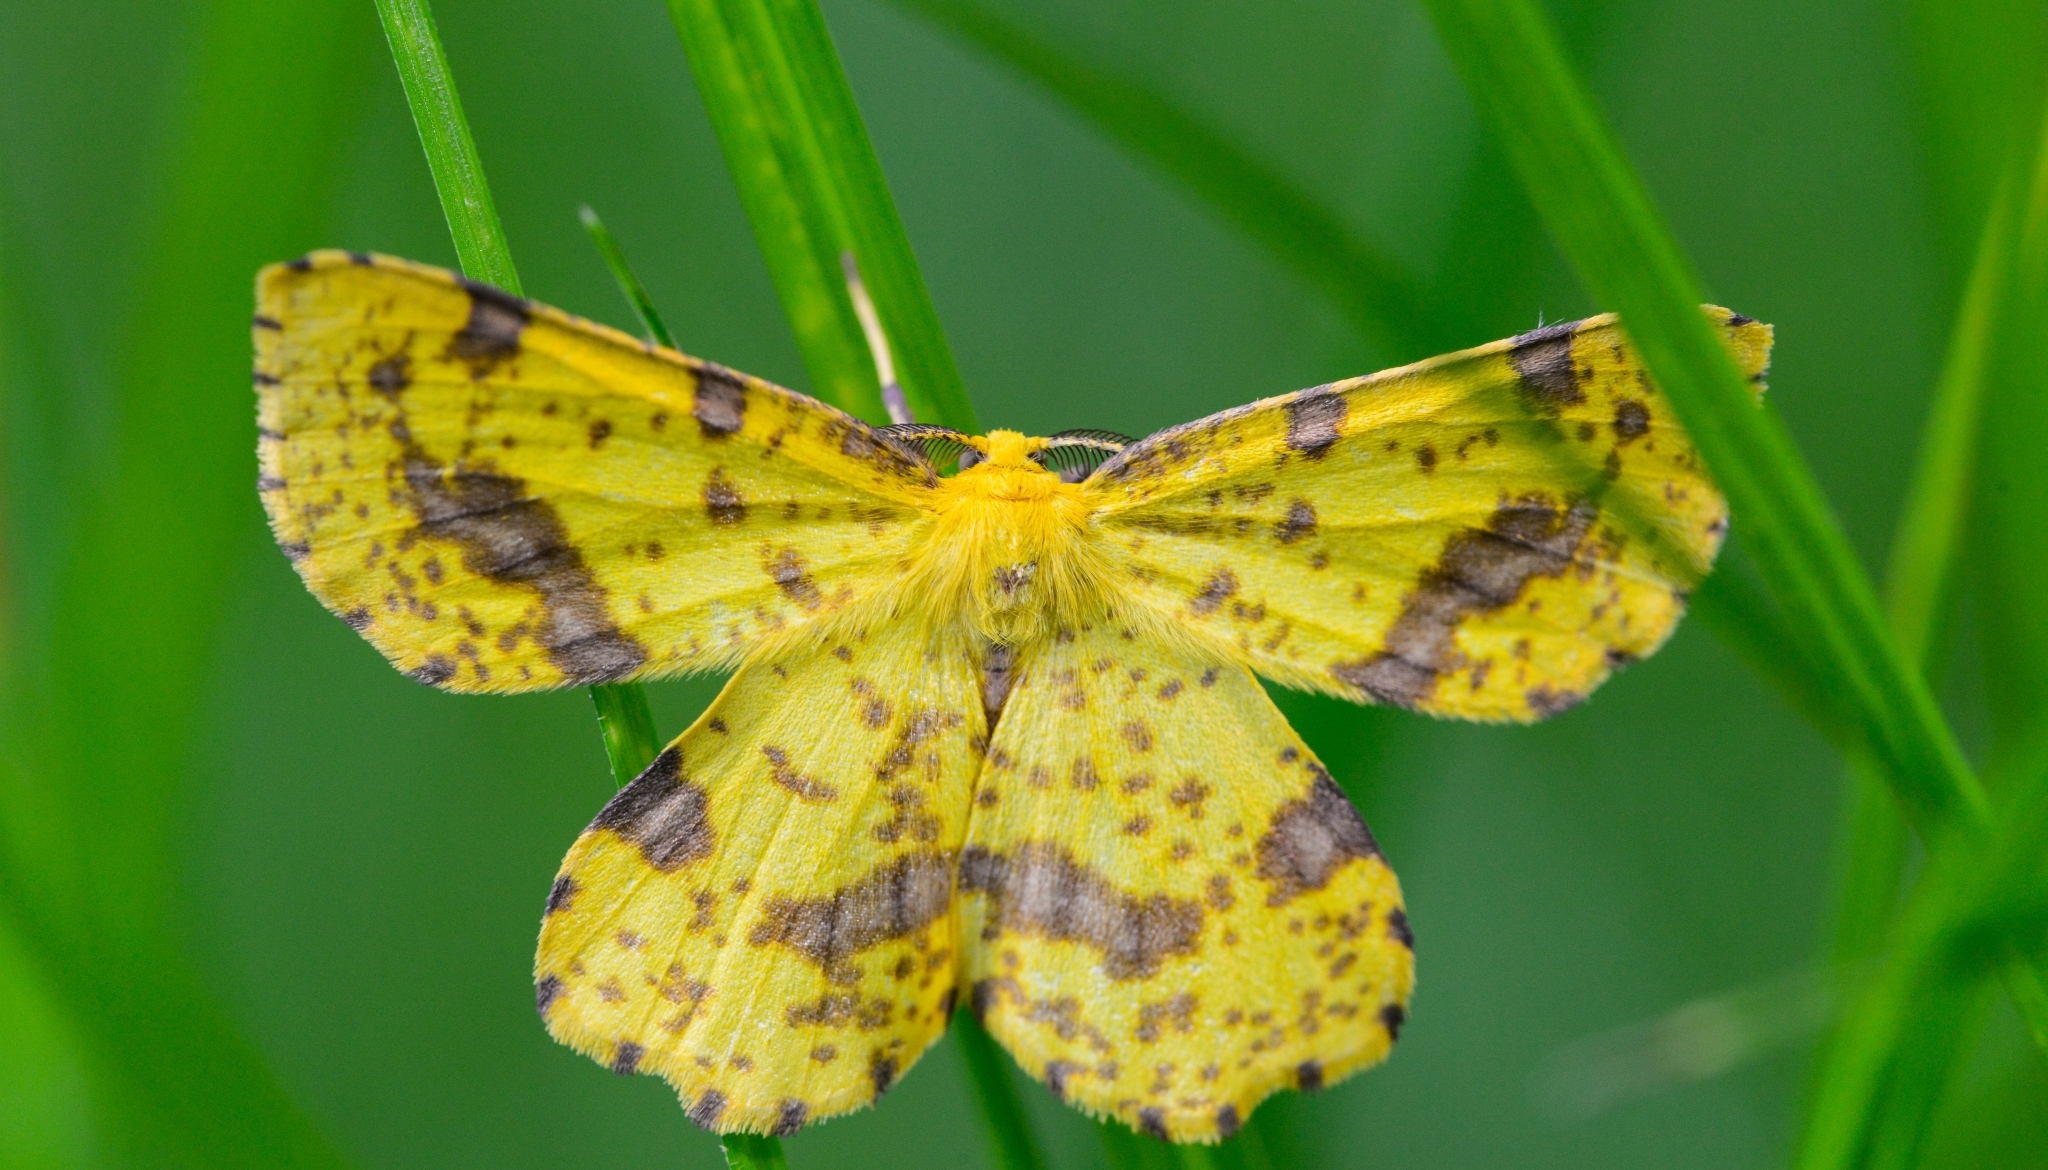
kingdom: Animalia
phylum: Arthropoda
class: Insecta
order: Lepidoptera
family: Geometridae
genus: Xanthotype
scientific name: Xanthotype
